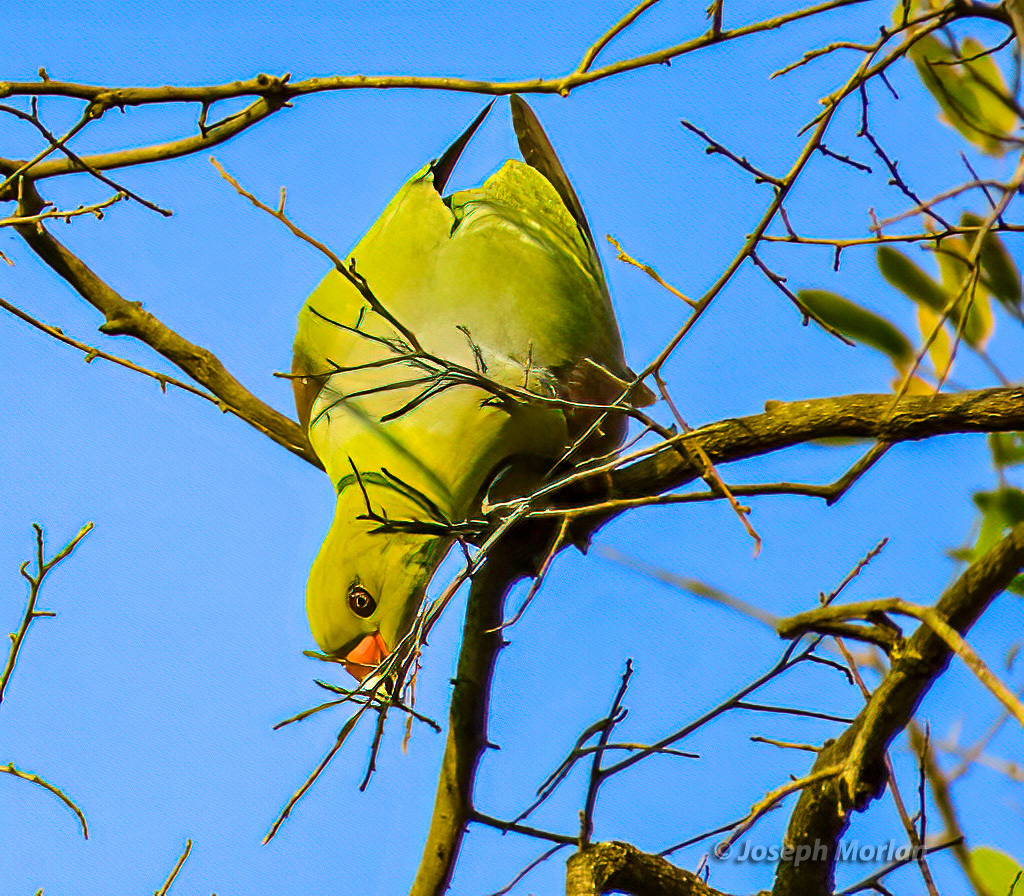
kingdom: Animalia
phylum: Chordata
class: Aves
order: Columbiformes
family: Columbidae
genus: Treron
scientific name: Treron calvus
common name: African green pigeon
